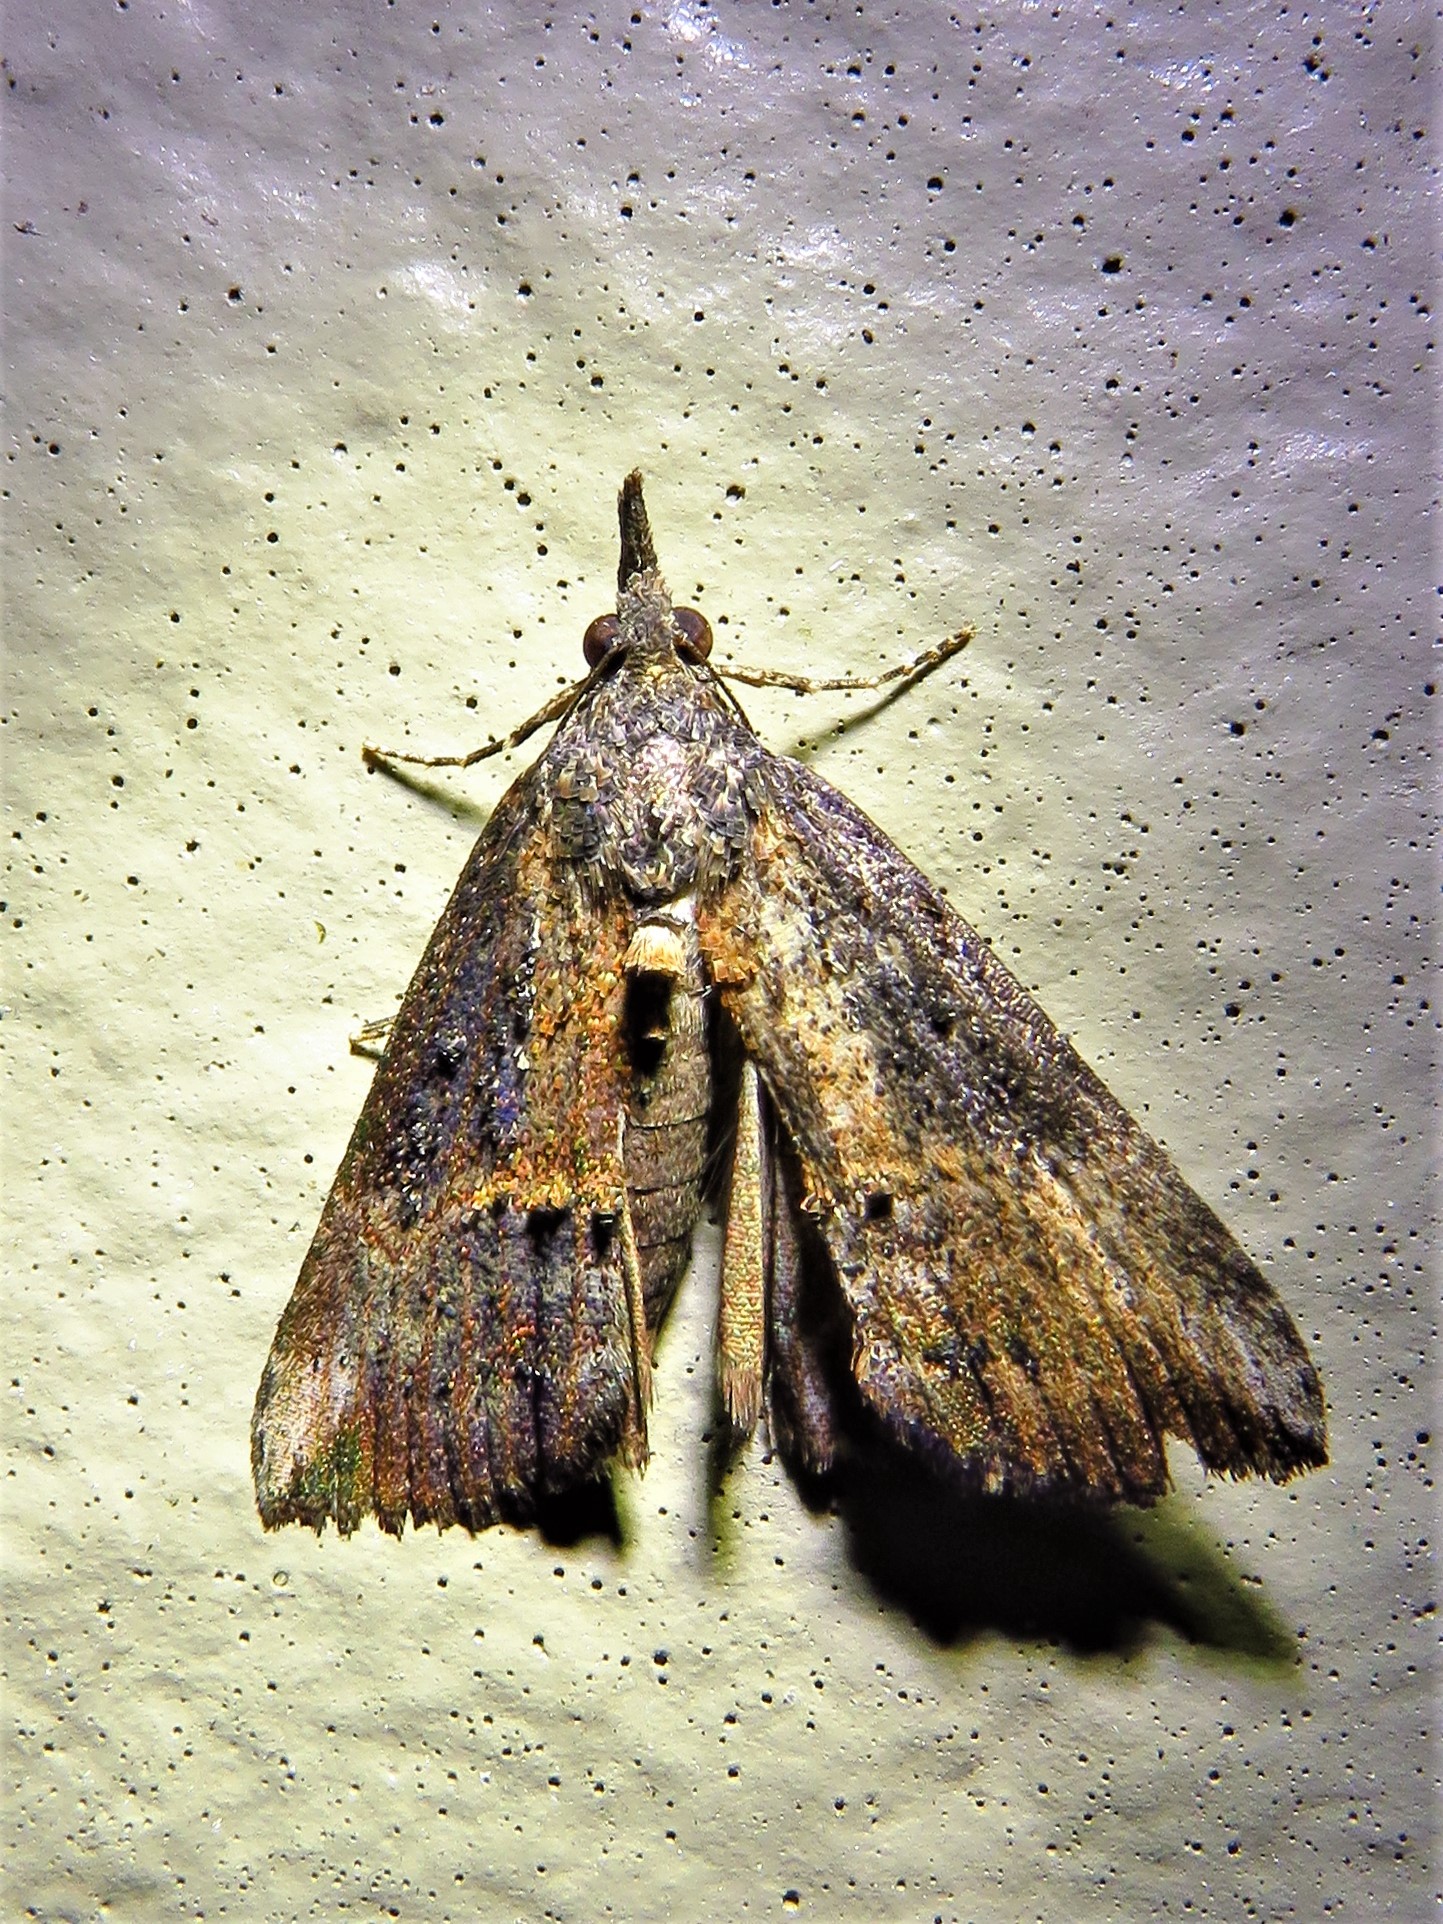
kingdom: Animalia
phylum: Arthropoda
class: Insecta
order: Lepidoptera
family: Erebidae
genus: Hypena
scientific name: Hypena scabra
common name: Green cloverworm
